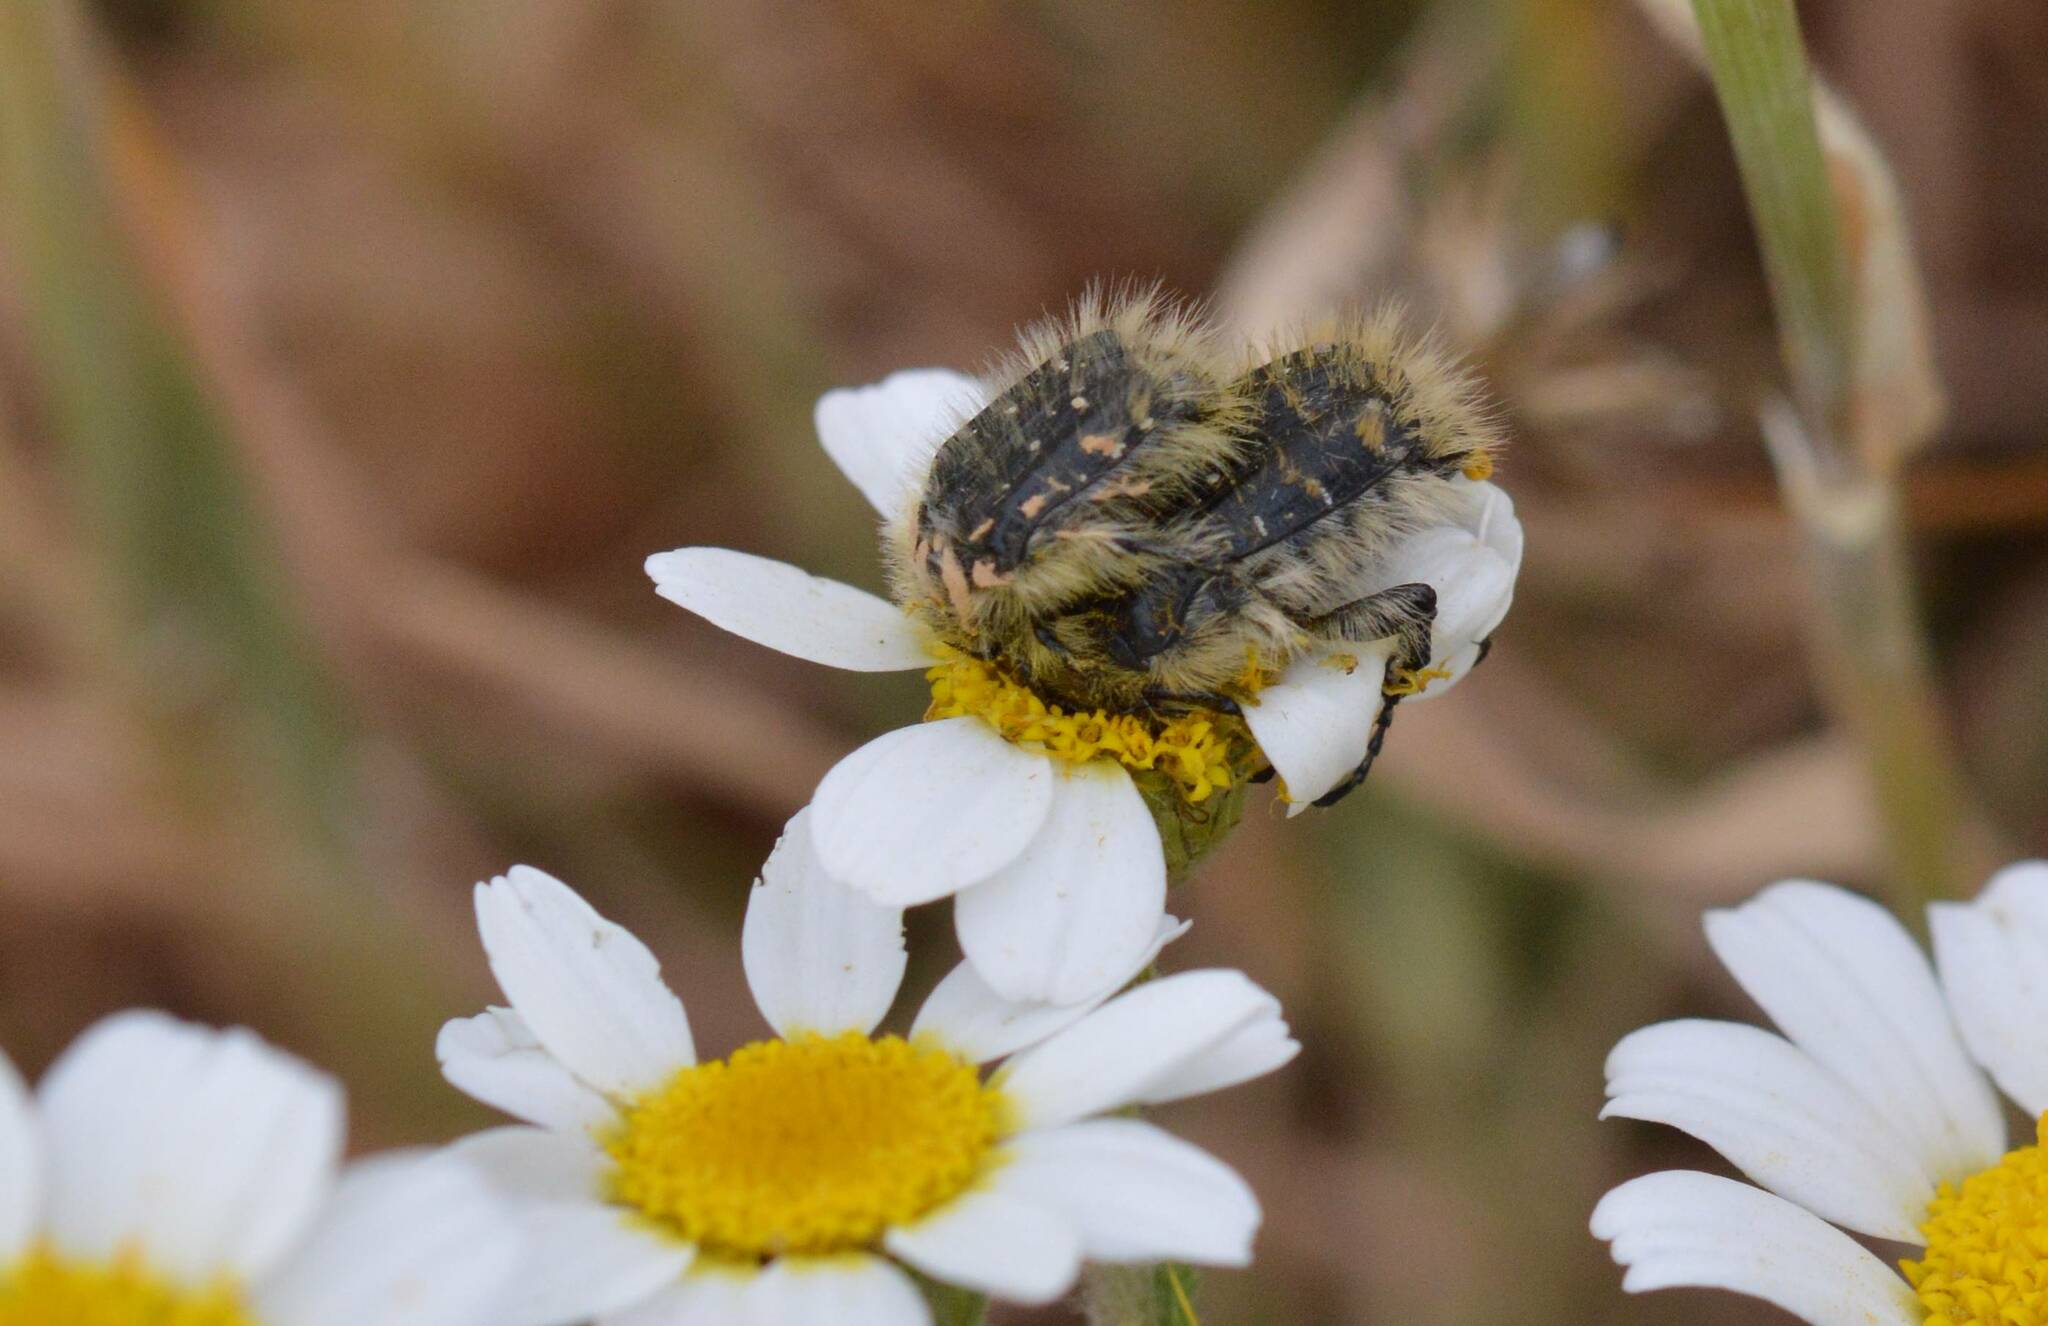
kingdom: Animalia
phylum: Arthropoda
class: Insecta
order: Coleoptera
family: Scarabaeidae
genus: Tropinota
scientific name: Tropinota squalida
